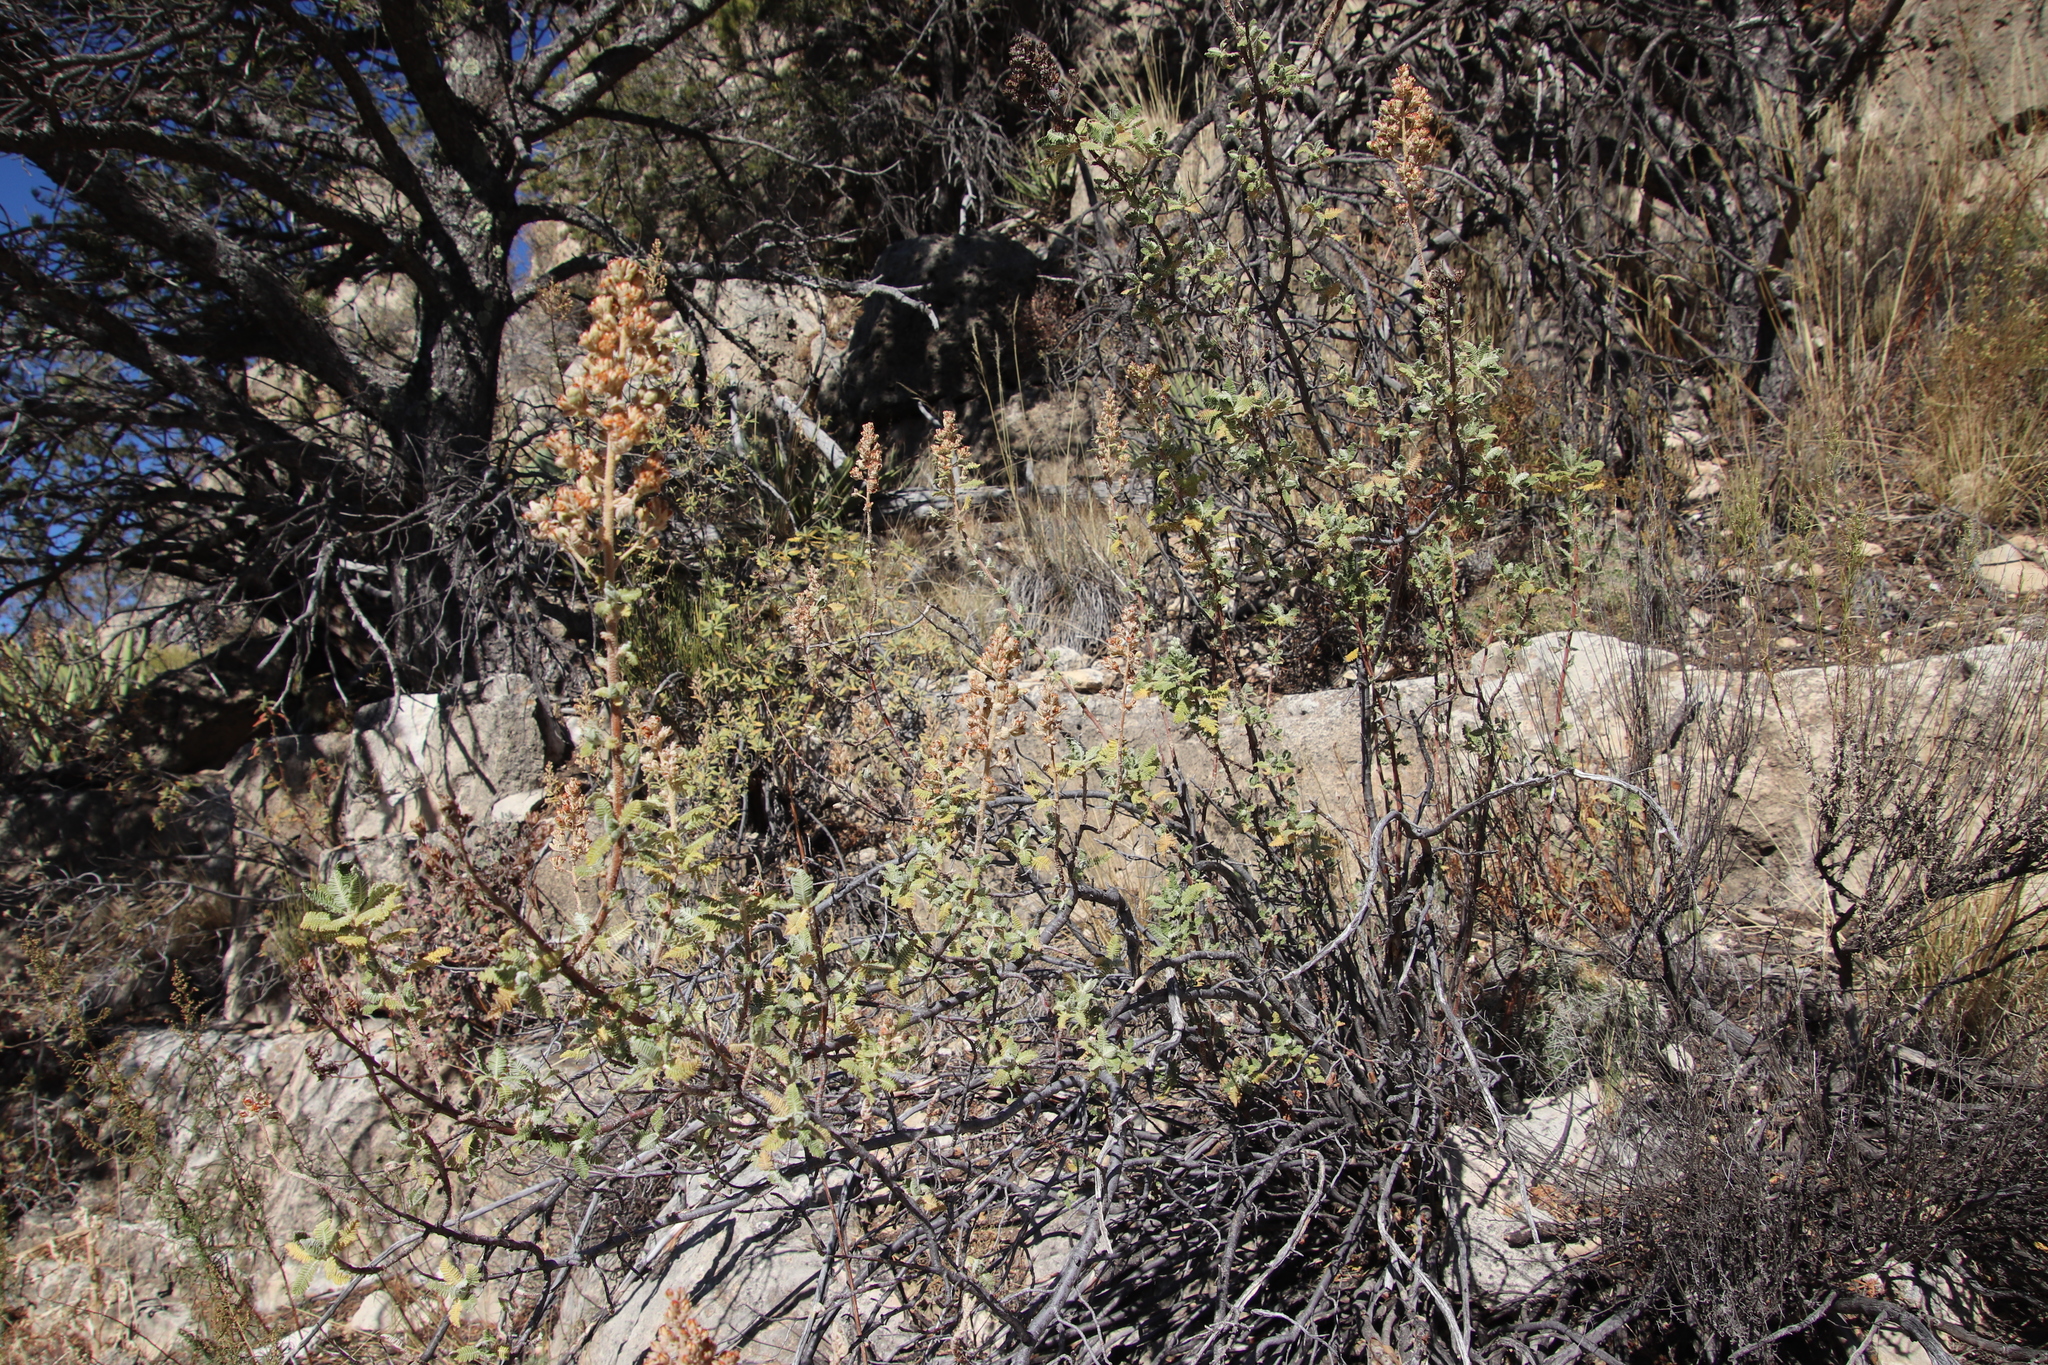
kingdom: Plantae
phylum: Tracheophyta
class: Magnoliopsida
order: Rosales
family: Rosaceae
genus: Chamaebatiaria
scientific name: Chamaebatiaria millefolium
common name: Fernbush
